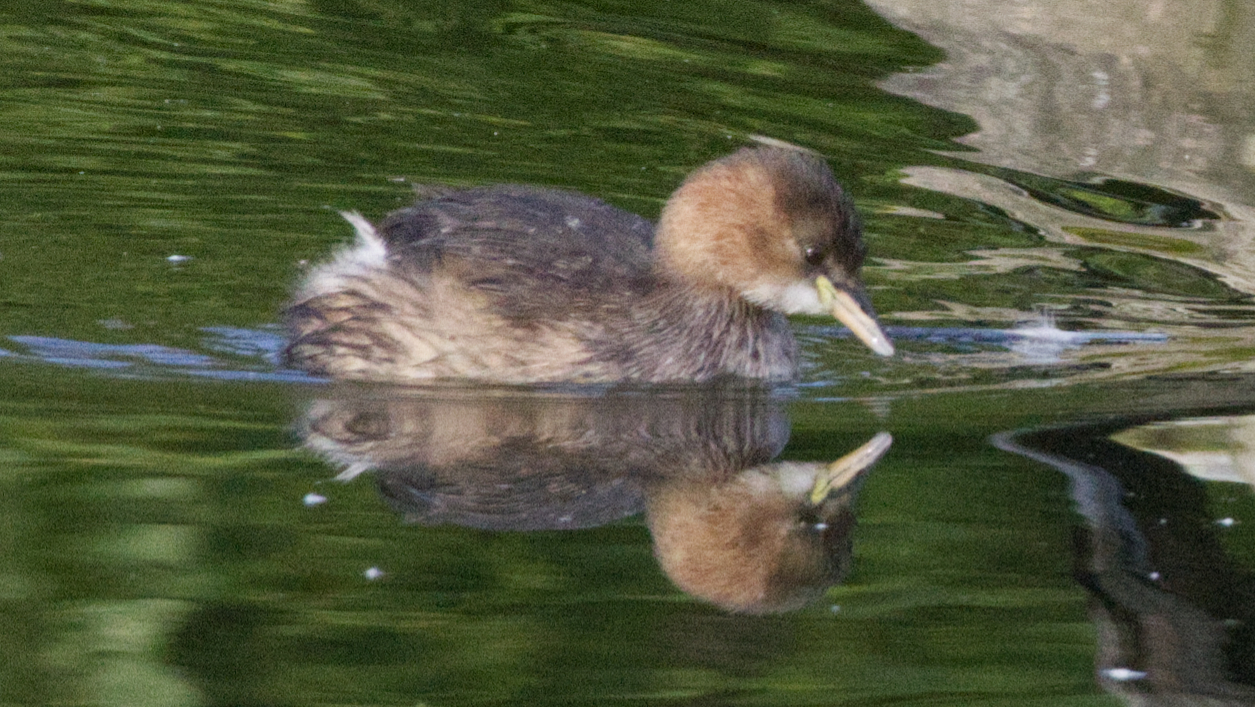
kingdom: Animalia
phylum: Chordata
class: Aves
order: Podicipediformes
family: Podicipedidae
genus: Tachybaptus
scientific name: Tachybaptus ruficollis
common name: Little grebe
